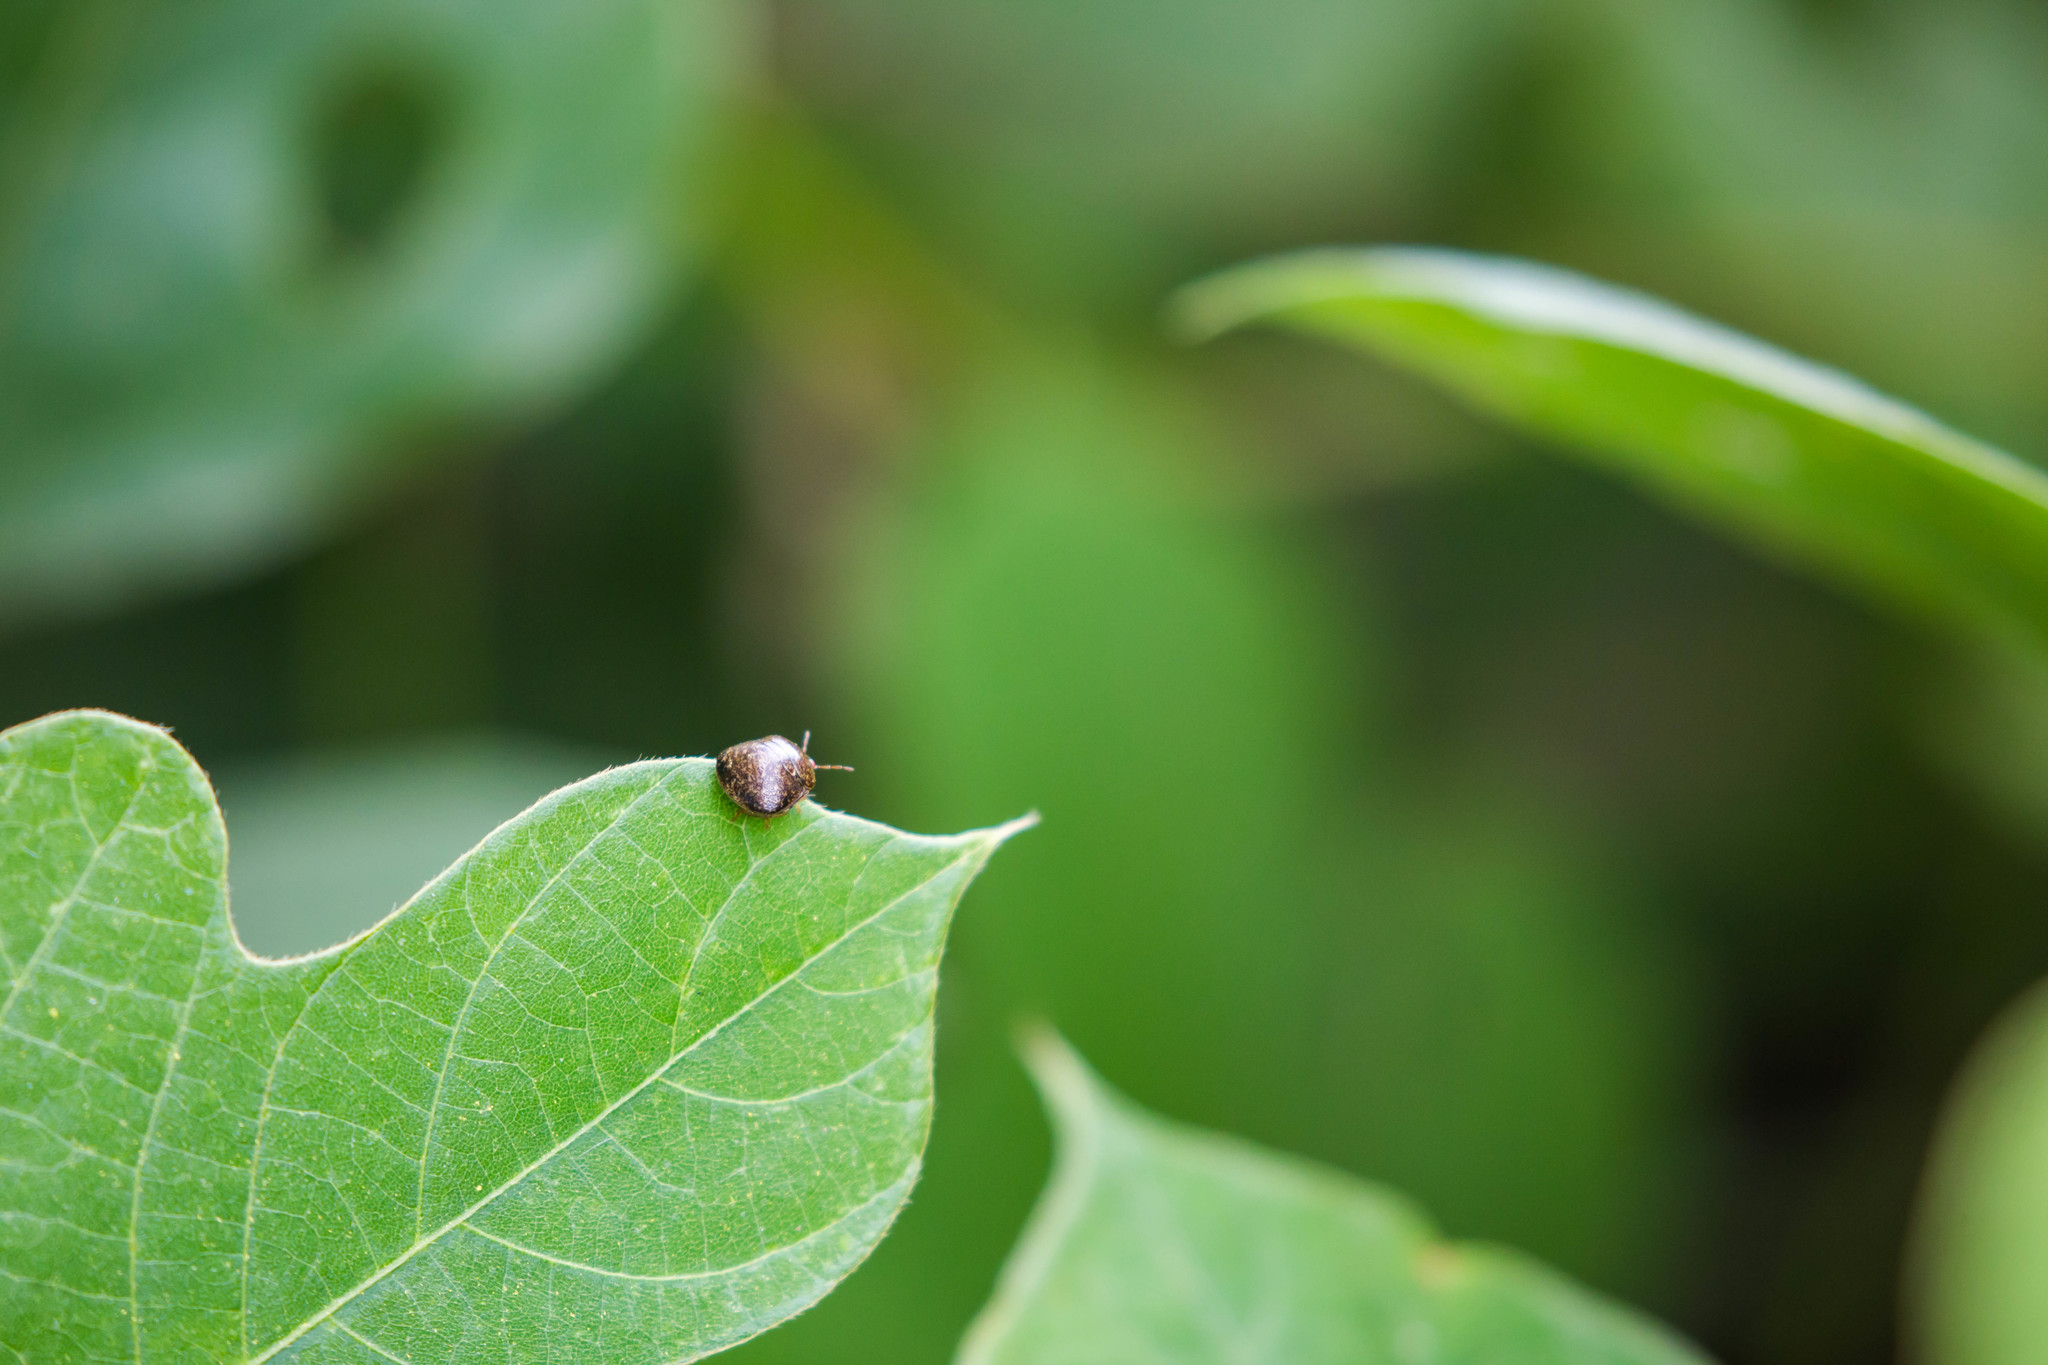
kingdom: Animalia
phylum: Arthropoda
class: Insecta
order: Hemiptera
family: Plataspidae
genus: Megacopta
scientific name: Megacopta cribraria
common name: Bean plataspid
